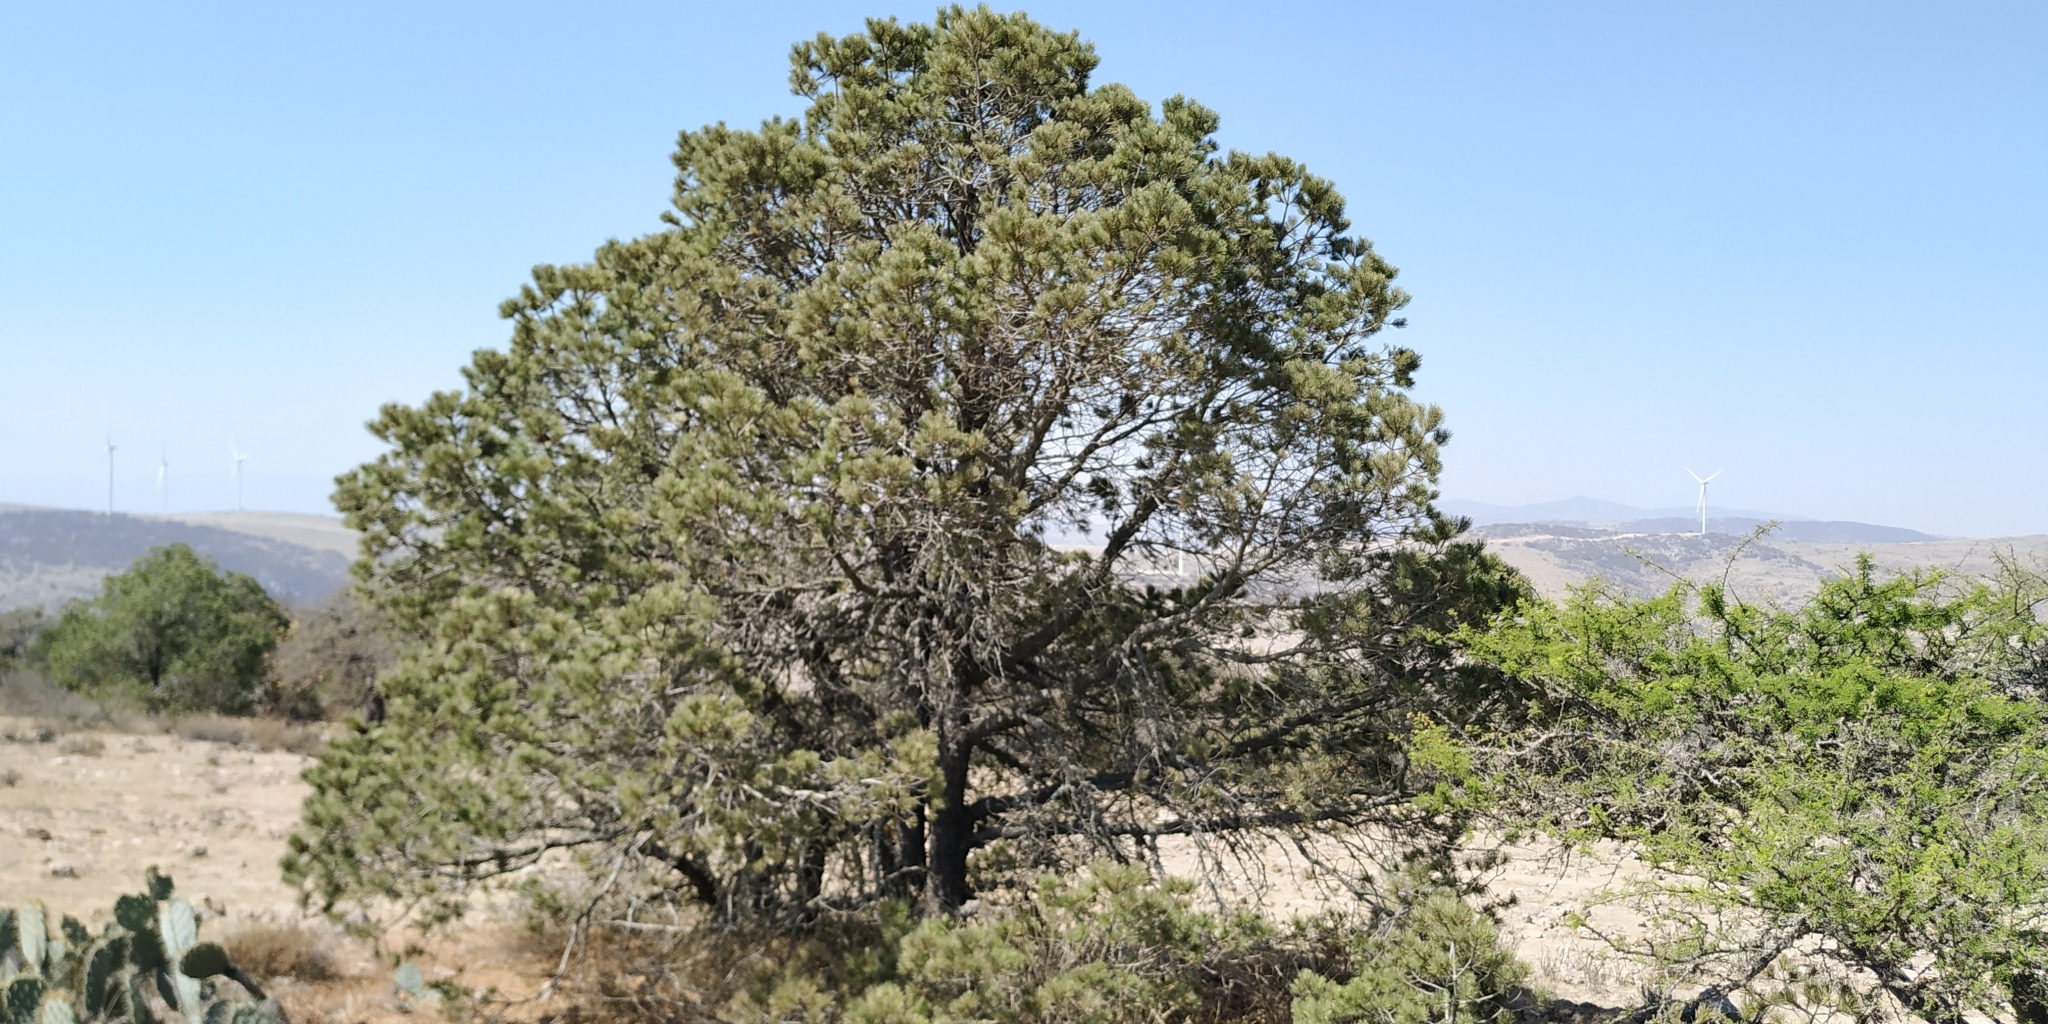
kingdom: Plantae
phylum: Tracheophyta
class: Pinopsida
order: Pinales
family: Pinaceae
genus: Pinus
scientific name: Pinus cembroides
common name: Mexican nut pine
